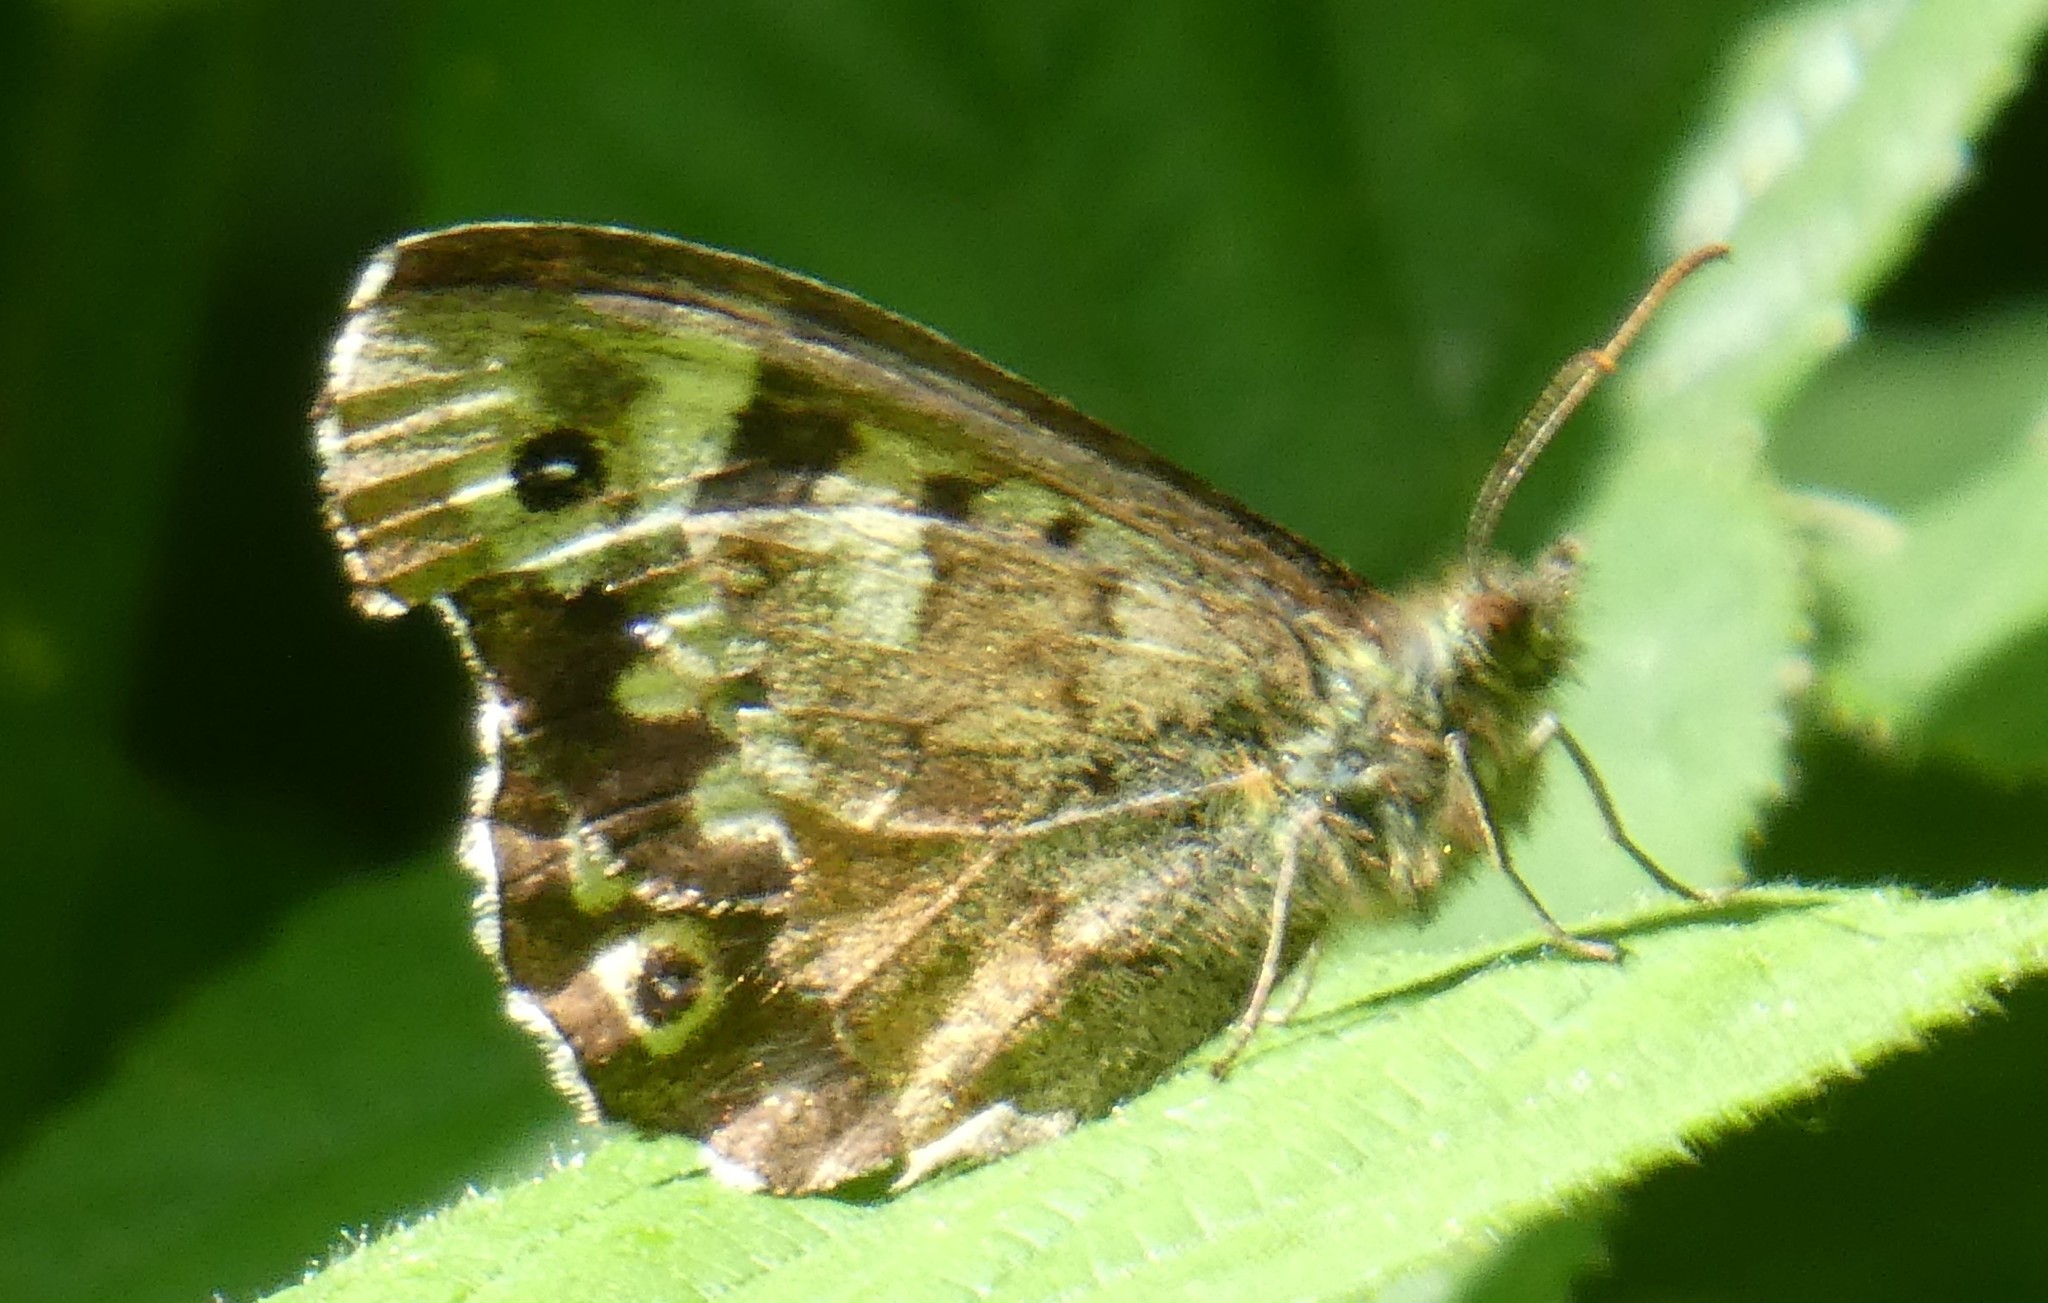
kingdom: Animalia
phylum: Arthropoda
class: Insecta
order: Lepidoptera
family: Nymphalidae
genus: Pararge
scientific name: Pararge aegeria
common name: Speckled wood
